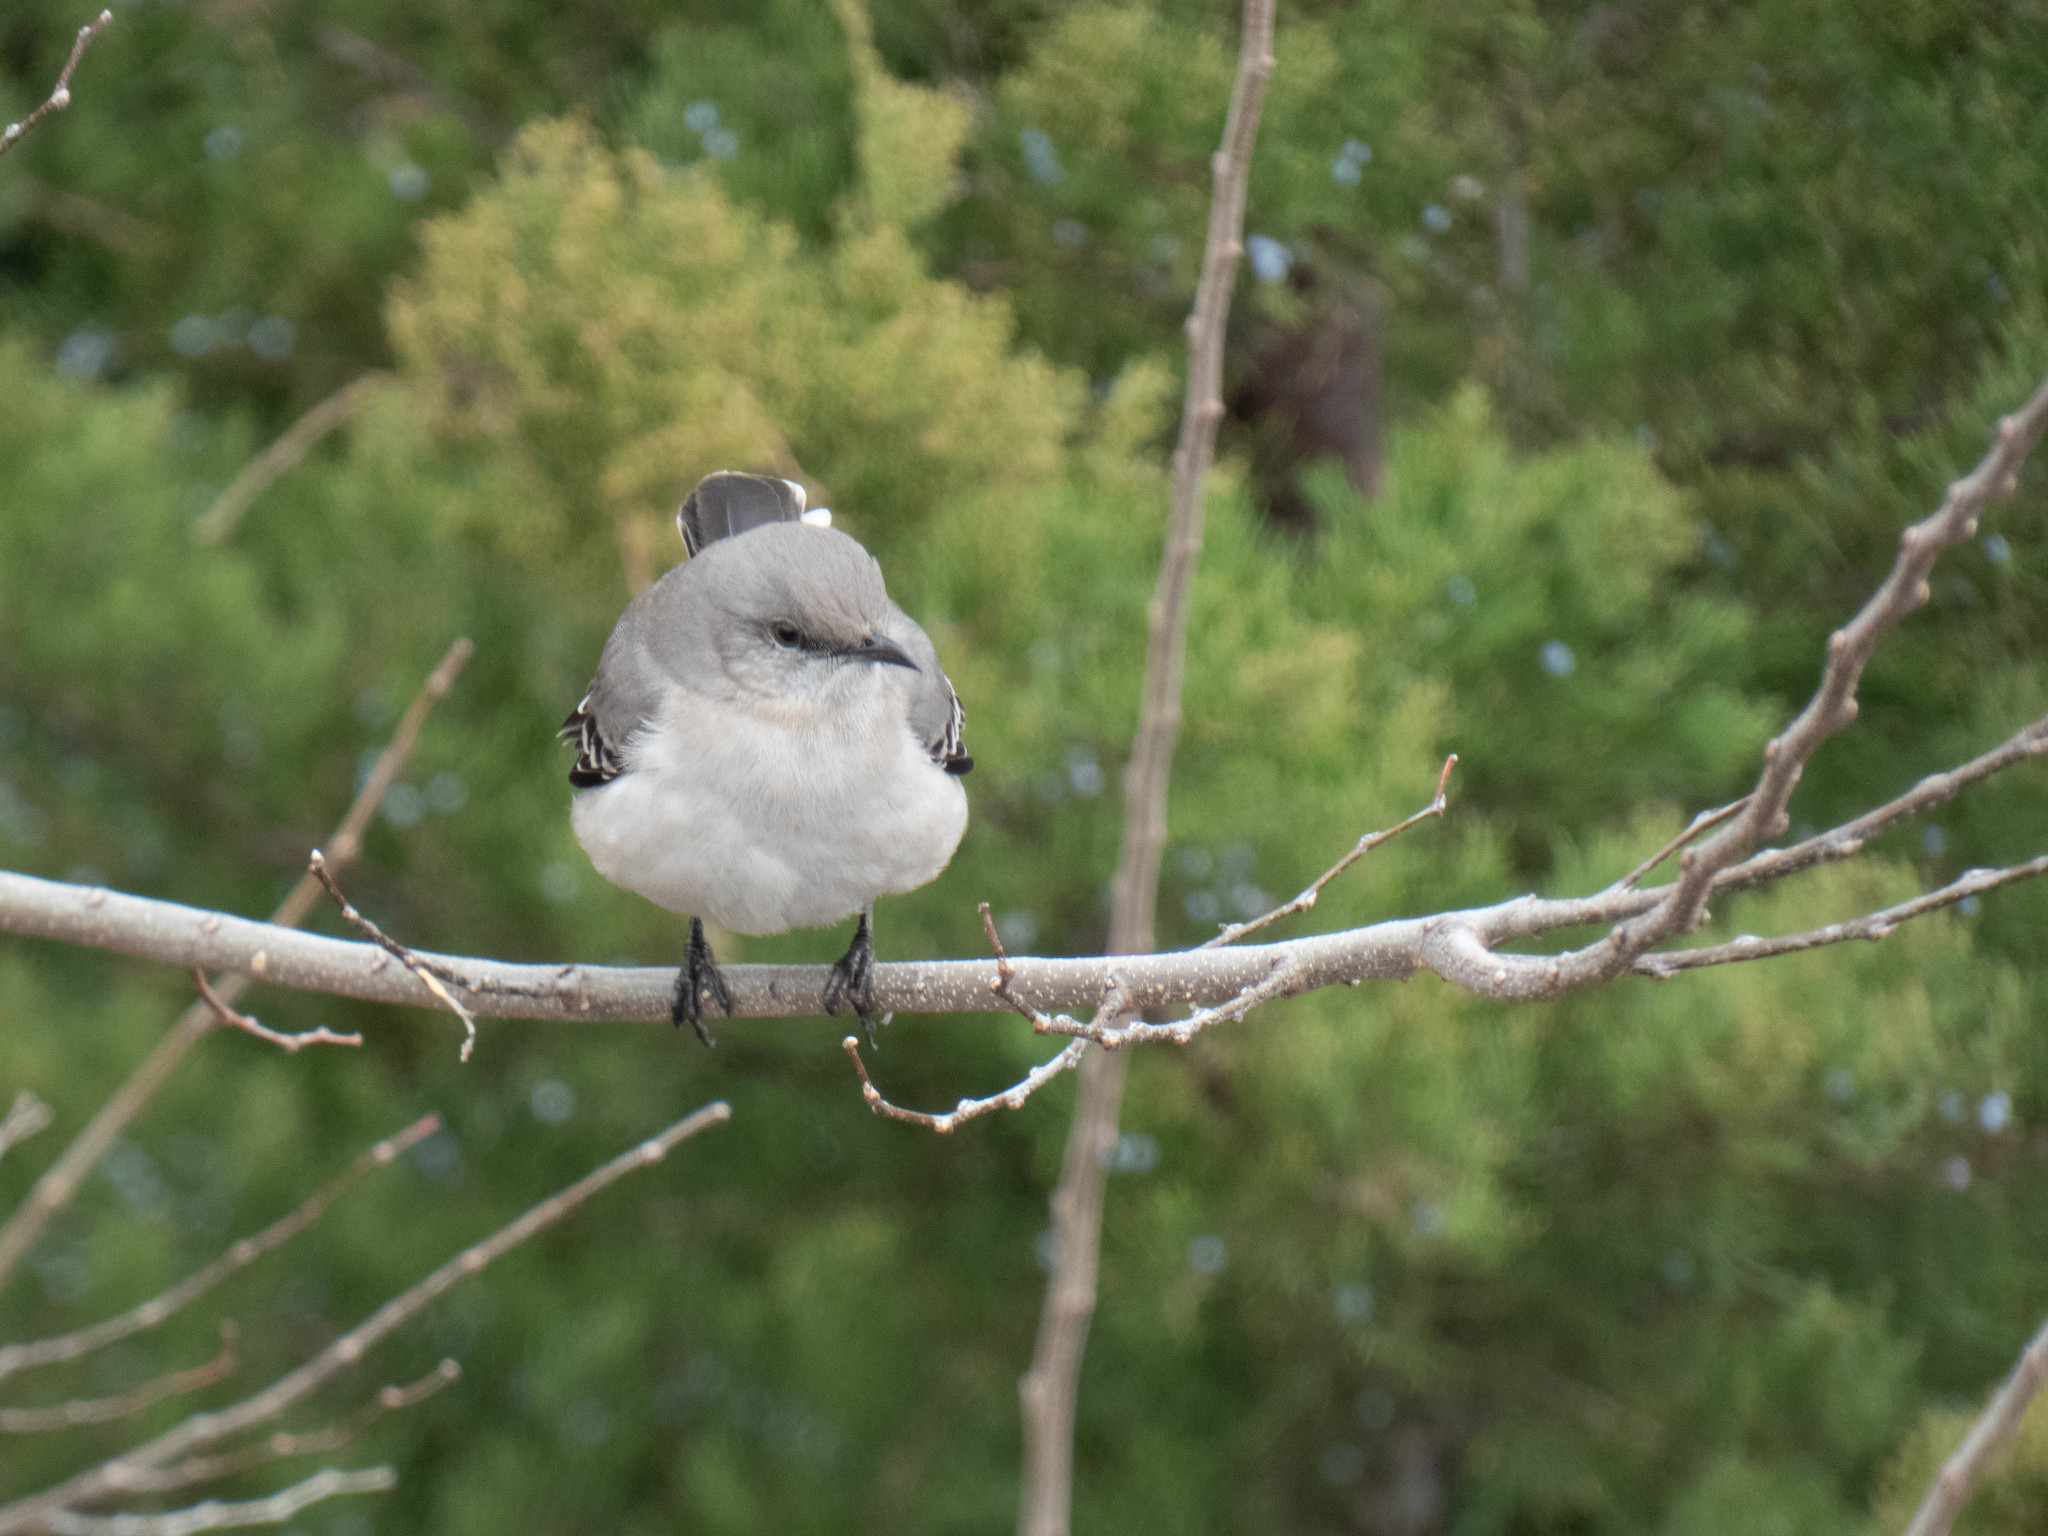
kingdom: Animalia
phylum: Chordata
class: Aves
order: Passeriformes
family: Mimidae
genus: Mimus
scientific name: Mimus polyglottos
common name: Northern mockingbird
